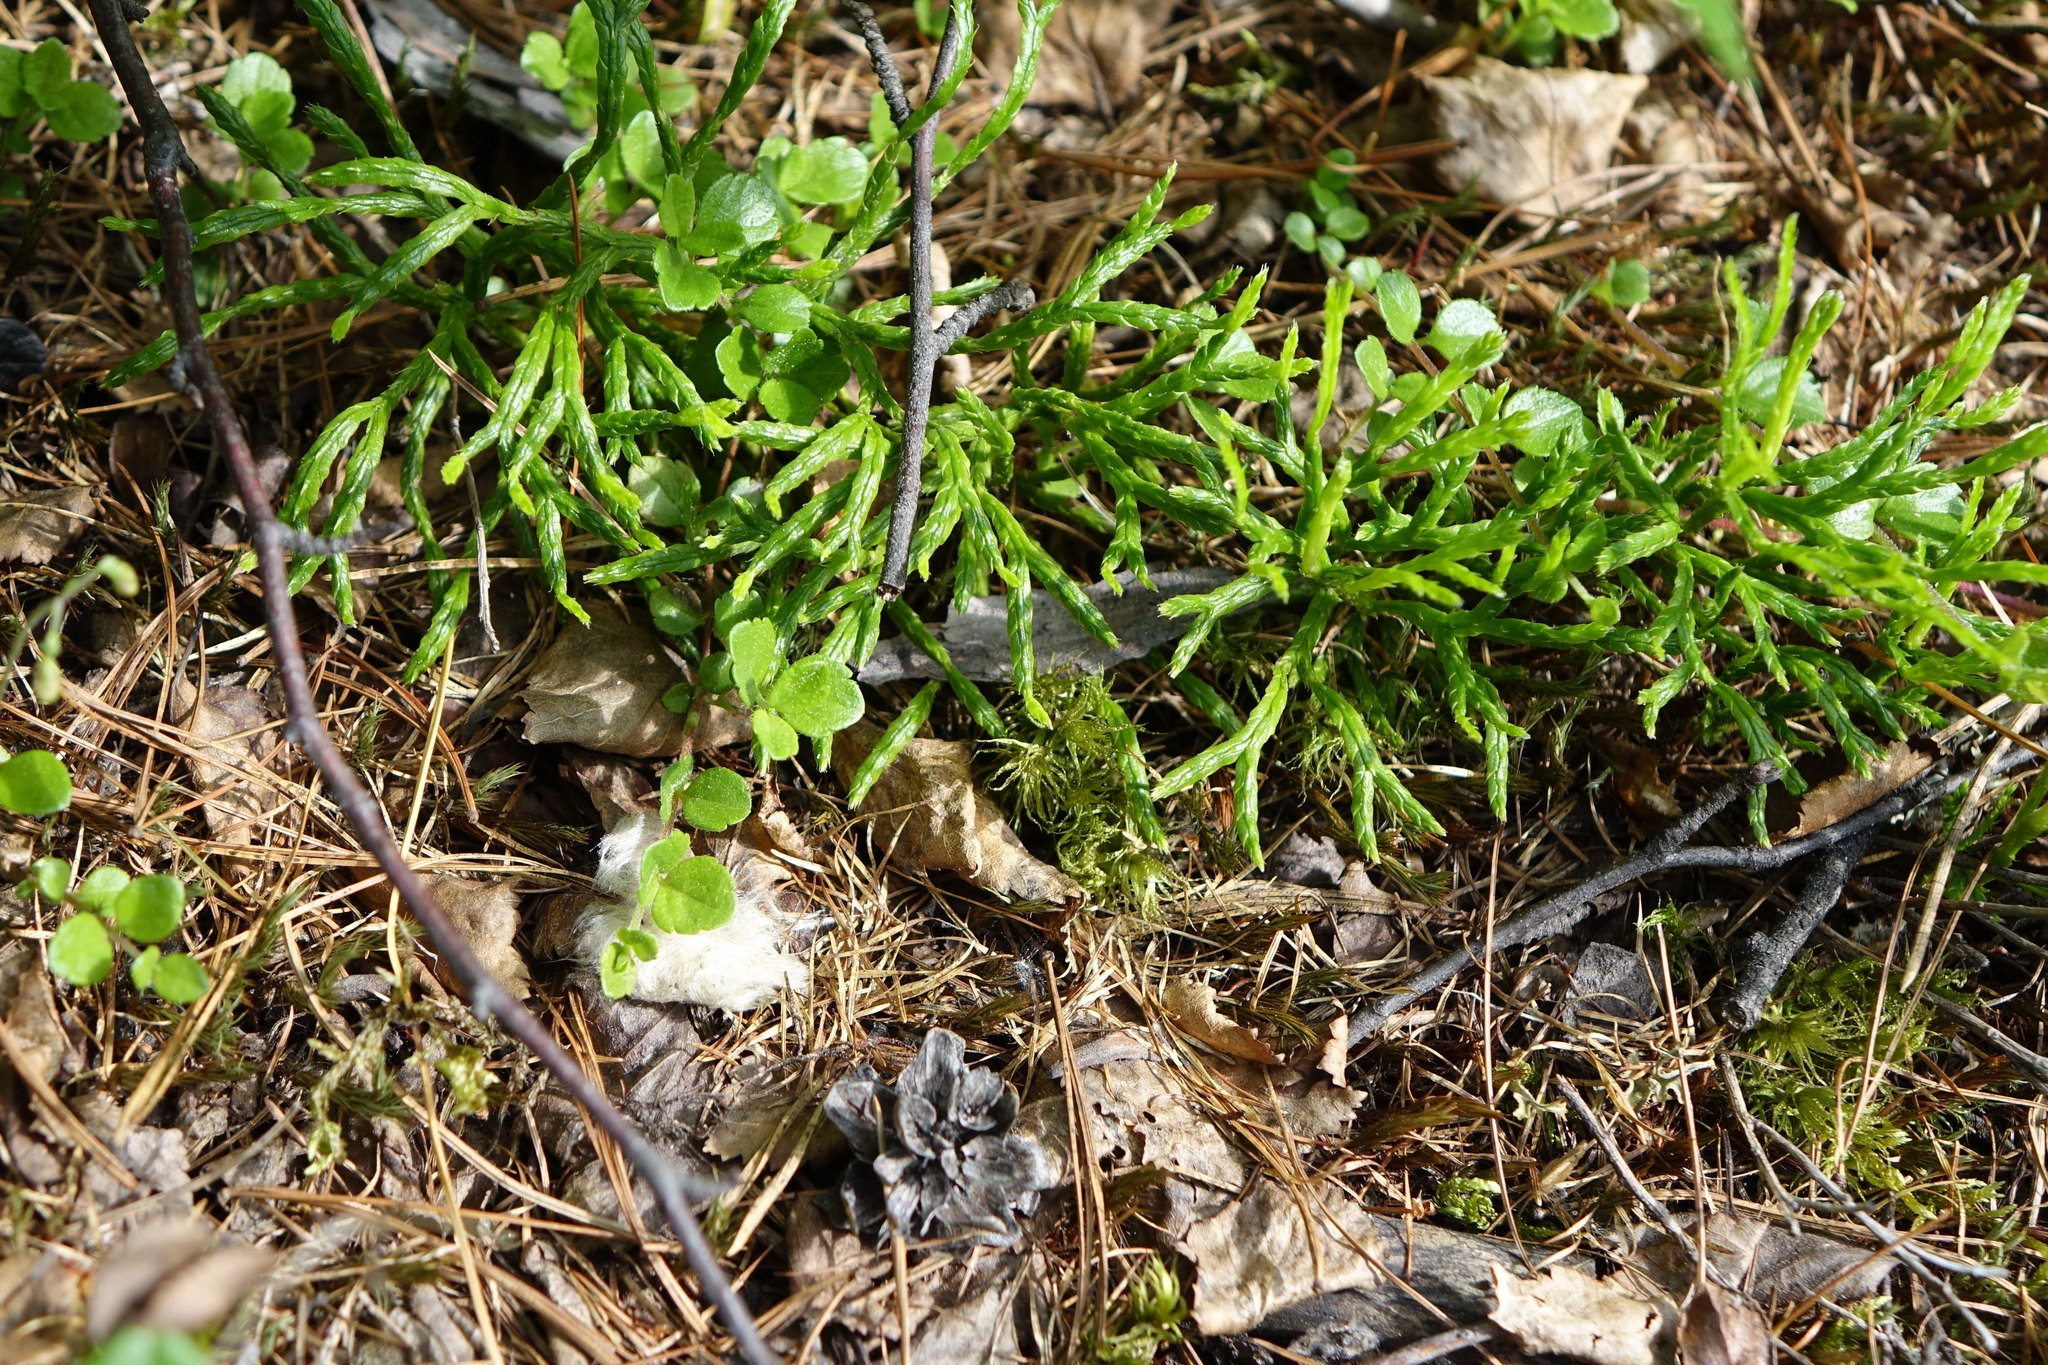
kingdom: Plantae
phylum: Tracheophyta
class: Lycopodiopsida
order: Lycopodiales
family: Lycopodiaceae
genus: Diphasiastrum
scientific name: Diphasiastrum complanatum
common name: Northern running-pine
